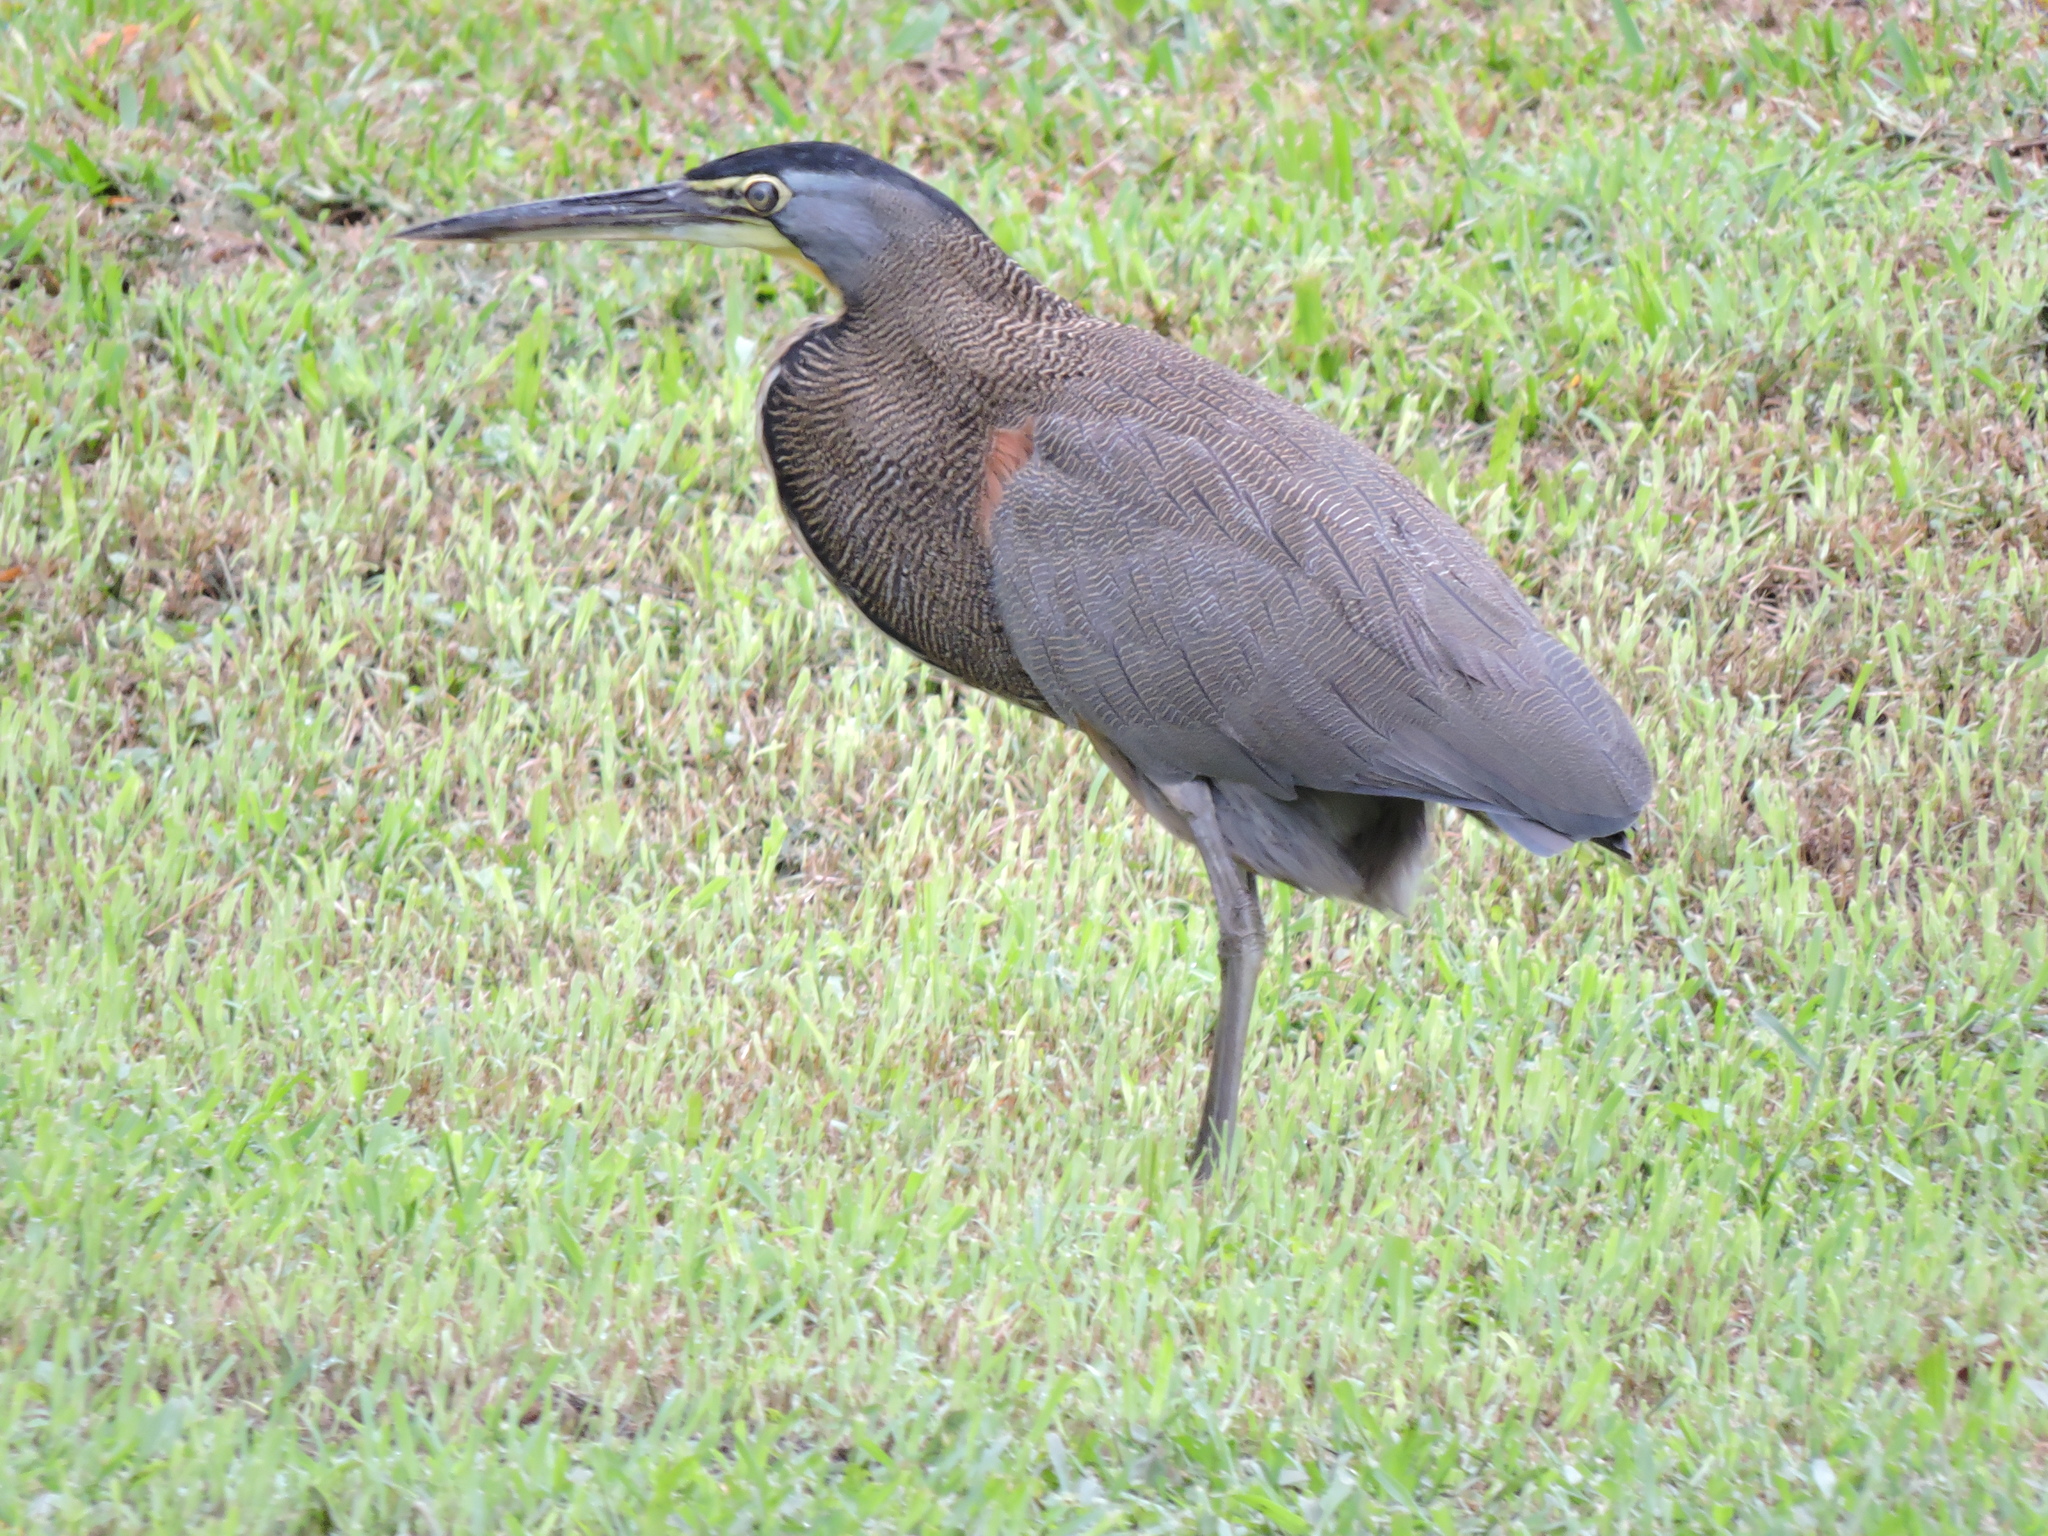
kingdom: Animalia
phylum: Chordata
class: Aves
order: Pelecaniformes
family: Ardeidae
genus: Tigrisoma
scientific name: Tigrisoma mexicanum
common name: Bare-throated tiger-heron
